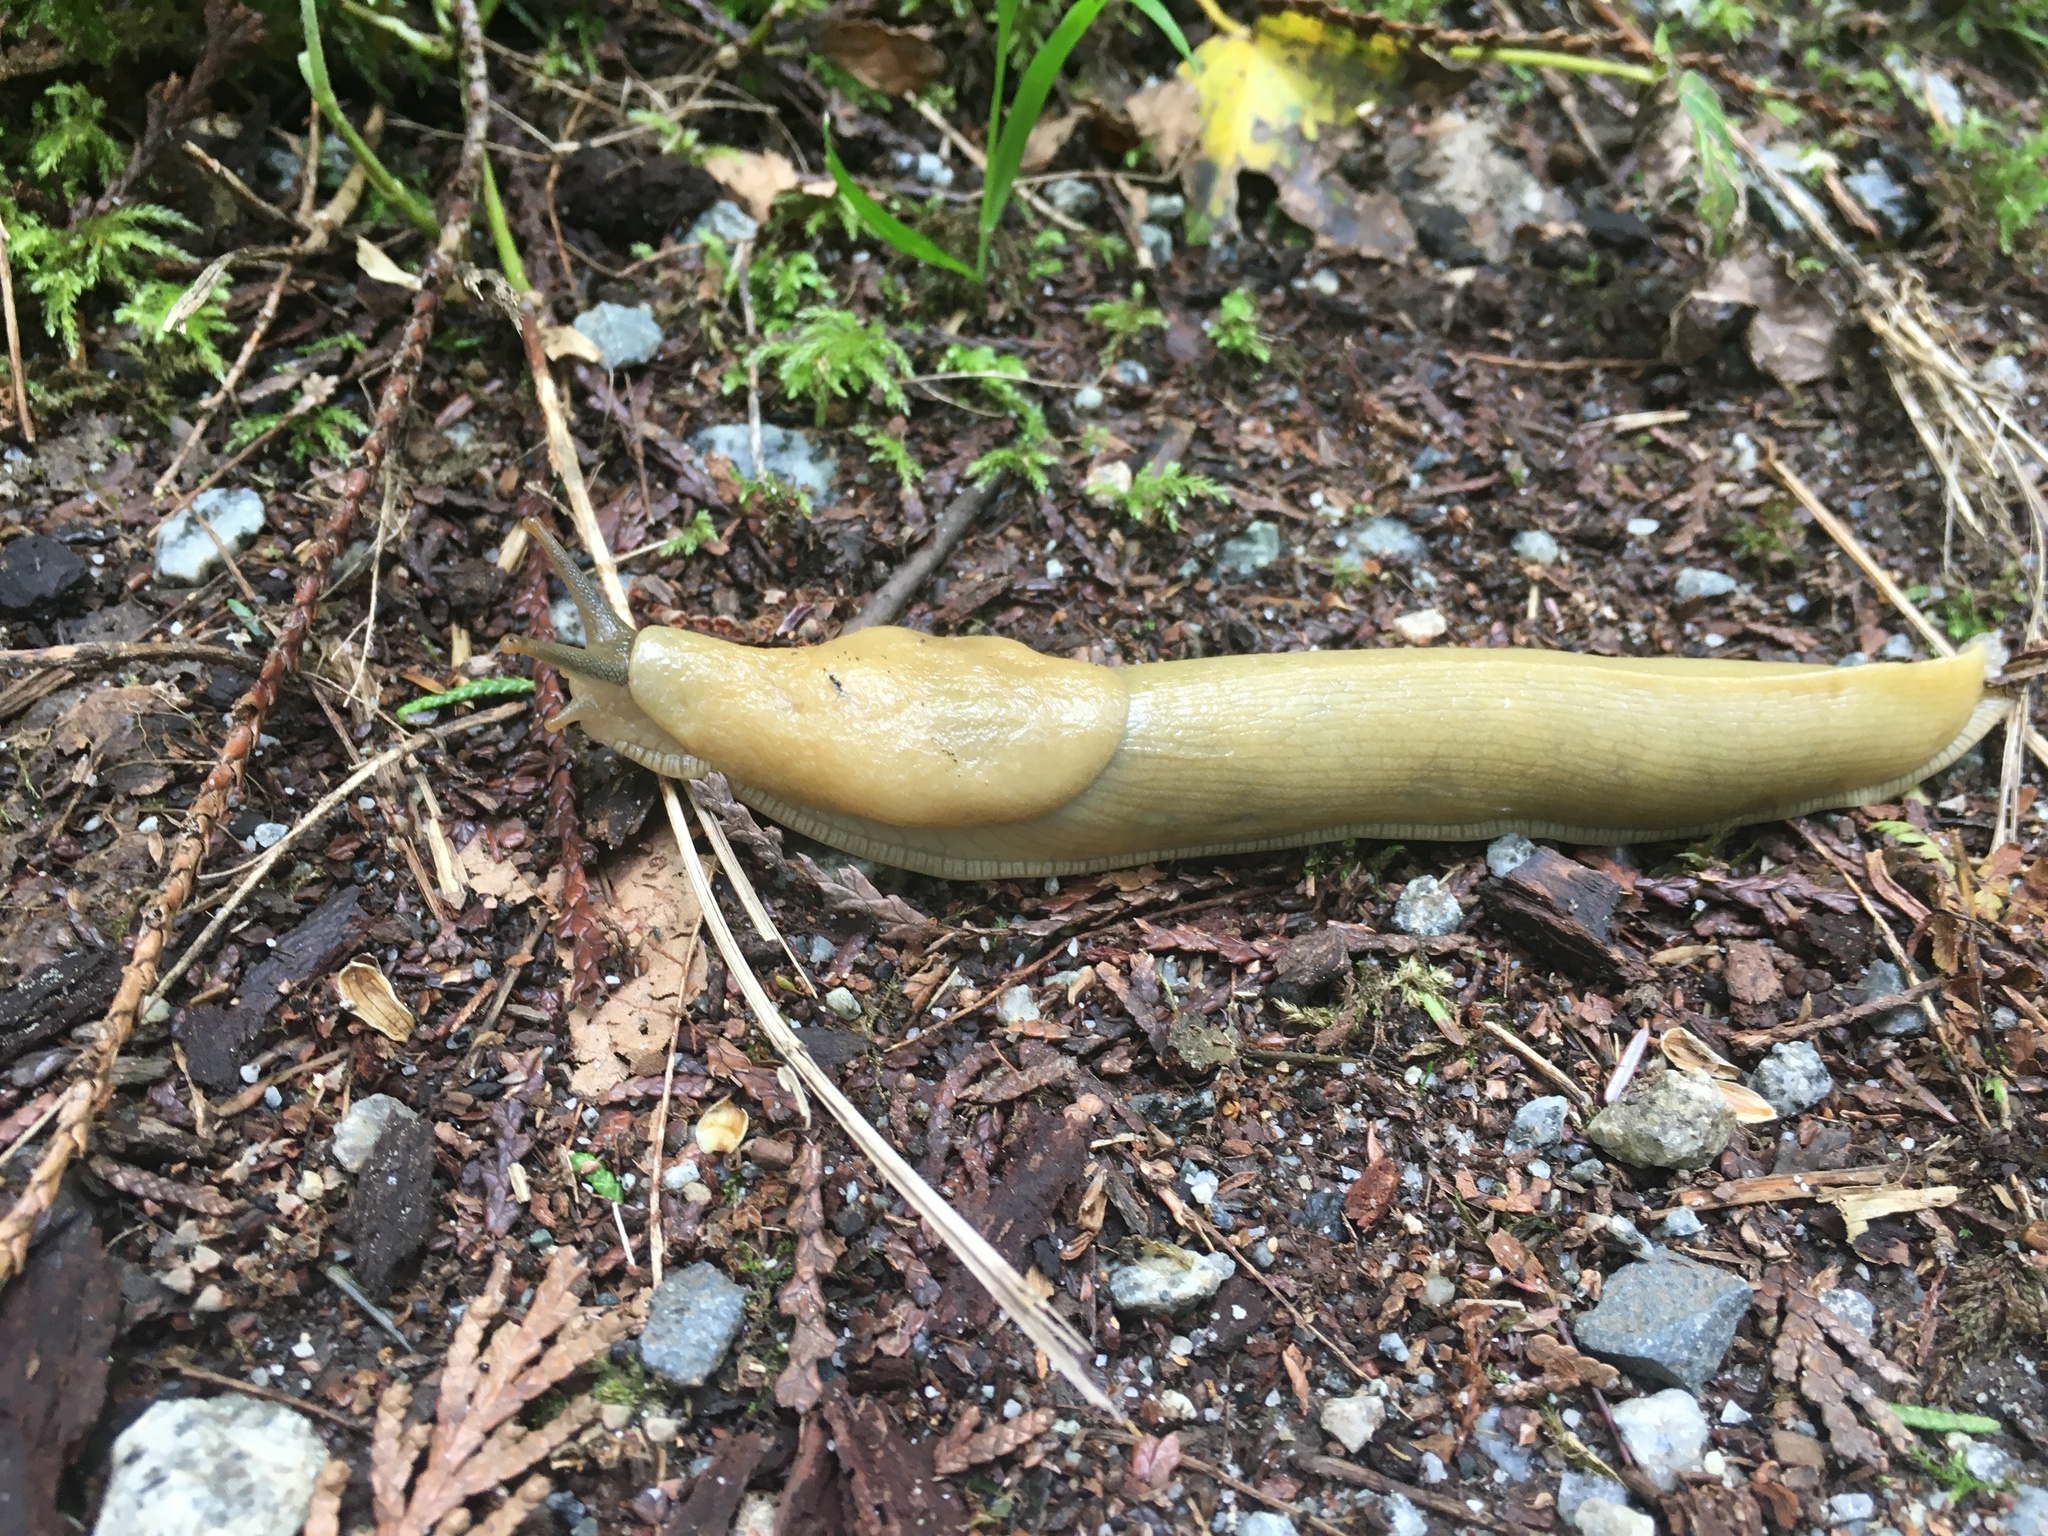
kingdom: Animalia
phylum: Mollusca
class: Gastropoda
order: Stylommatophora
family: Ariolimacidae
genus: Ariolimax
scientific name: Ariolimax columbianus
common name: Pacific banana slug
